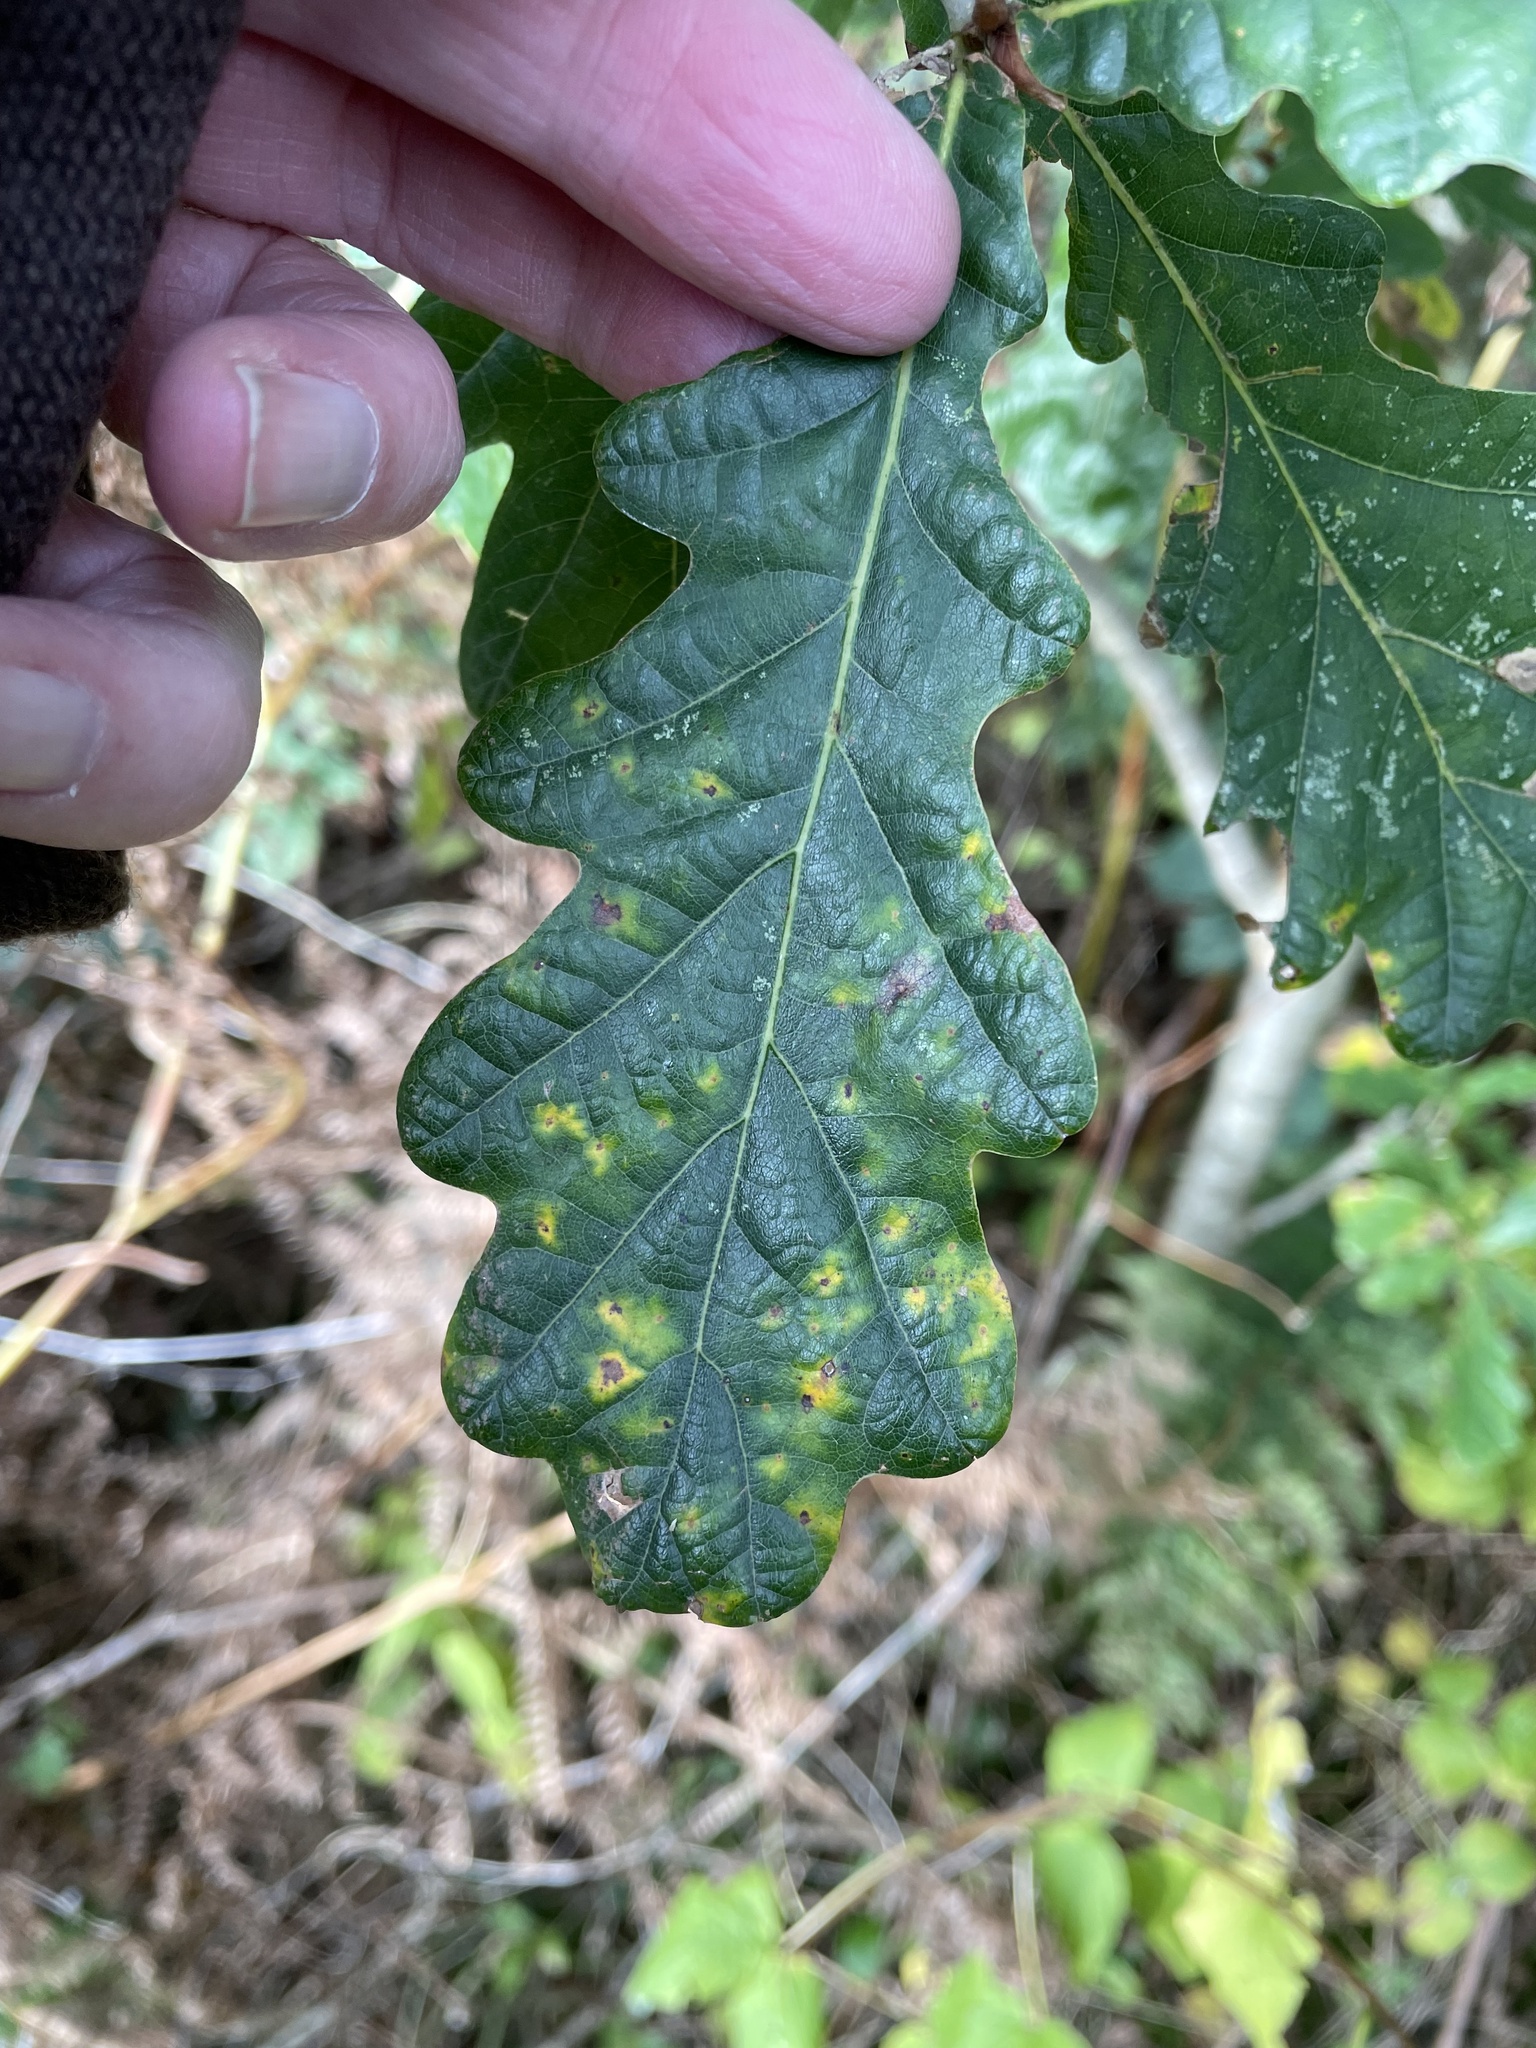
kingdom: Animalia
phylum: Arthropoda
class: Insecta
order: Hymenoptera
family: Cynipidae
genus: Neuroterus
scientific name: Neuroterus quercusbaccarum
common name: Common spangle gall
